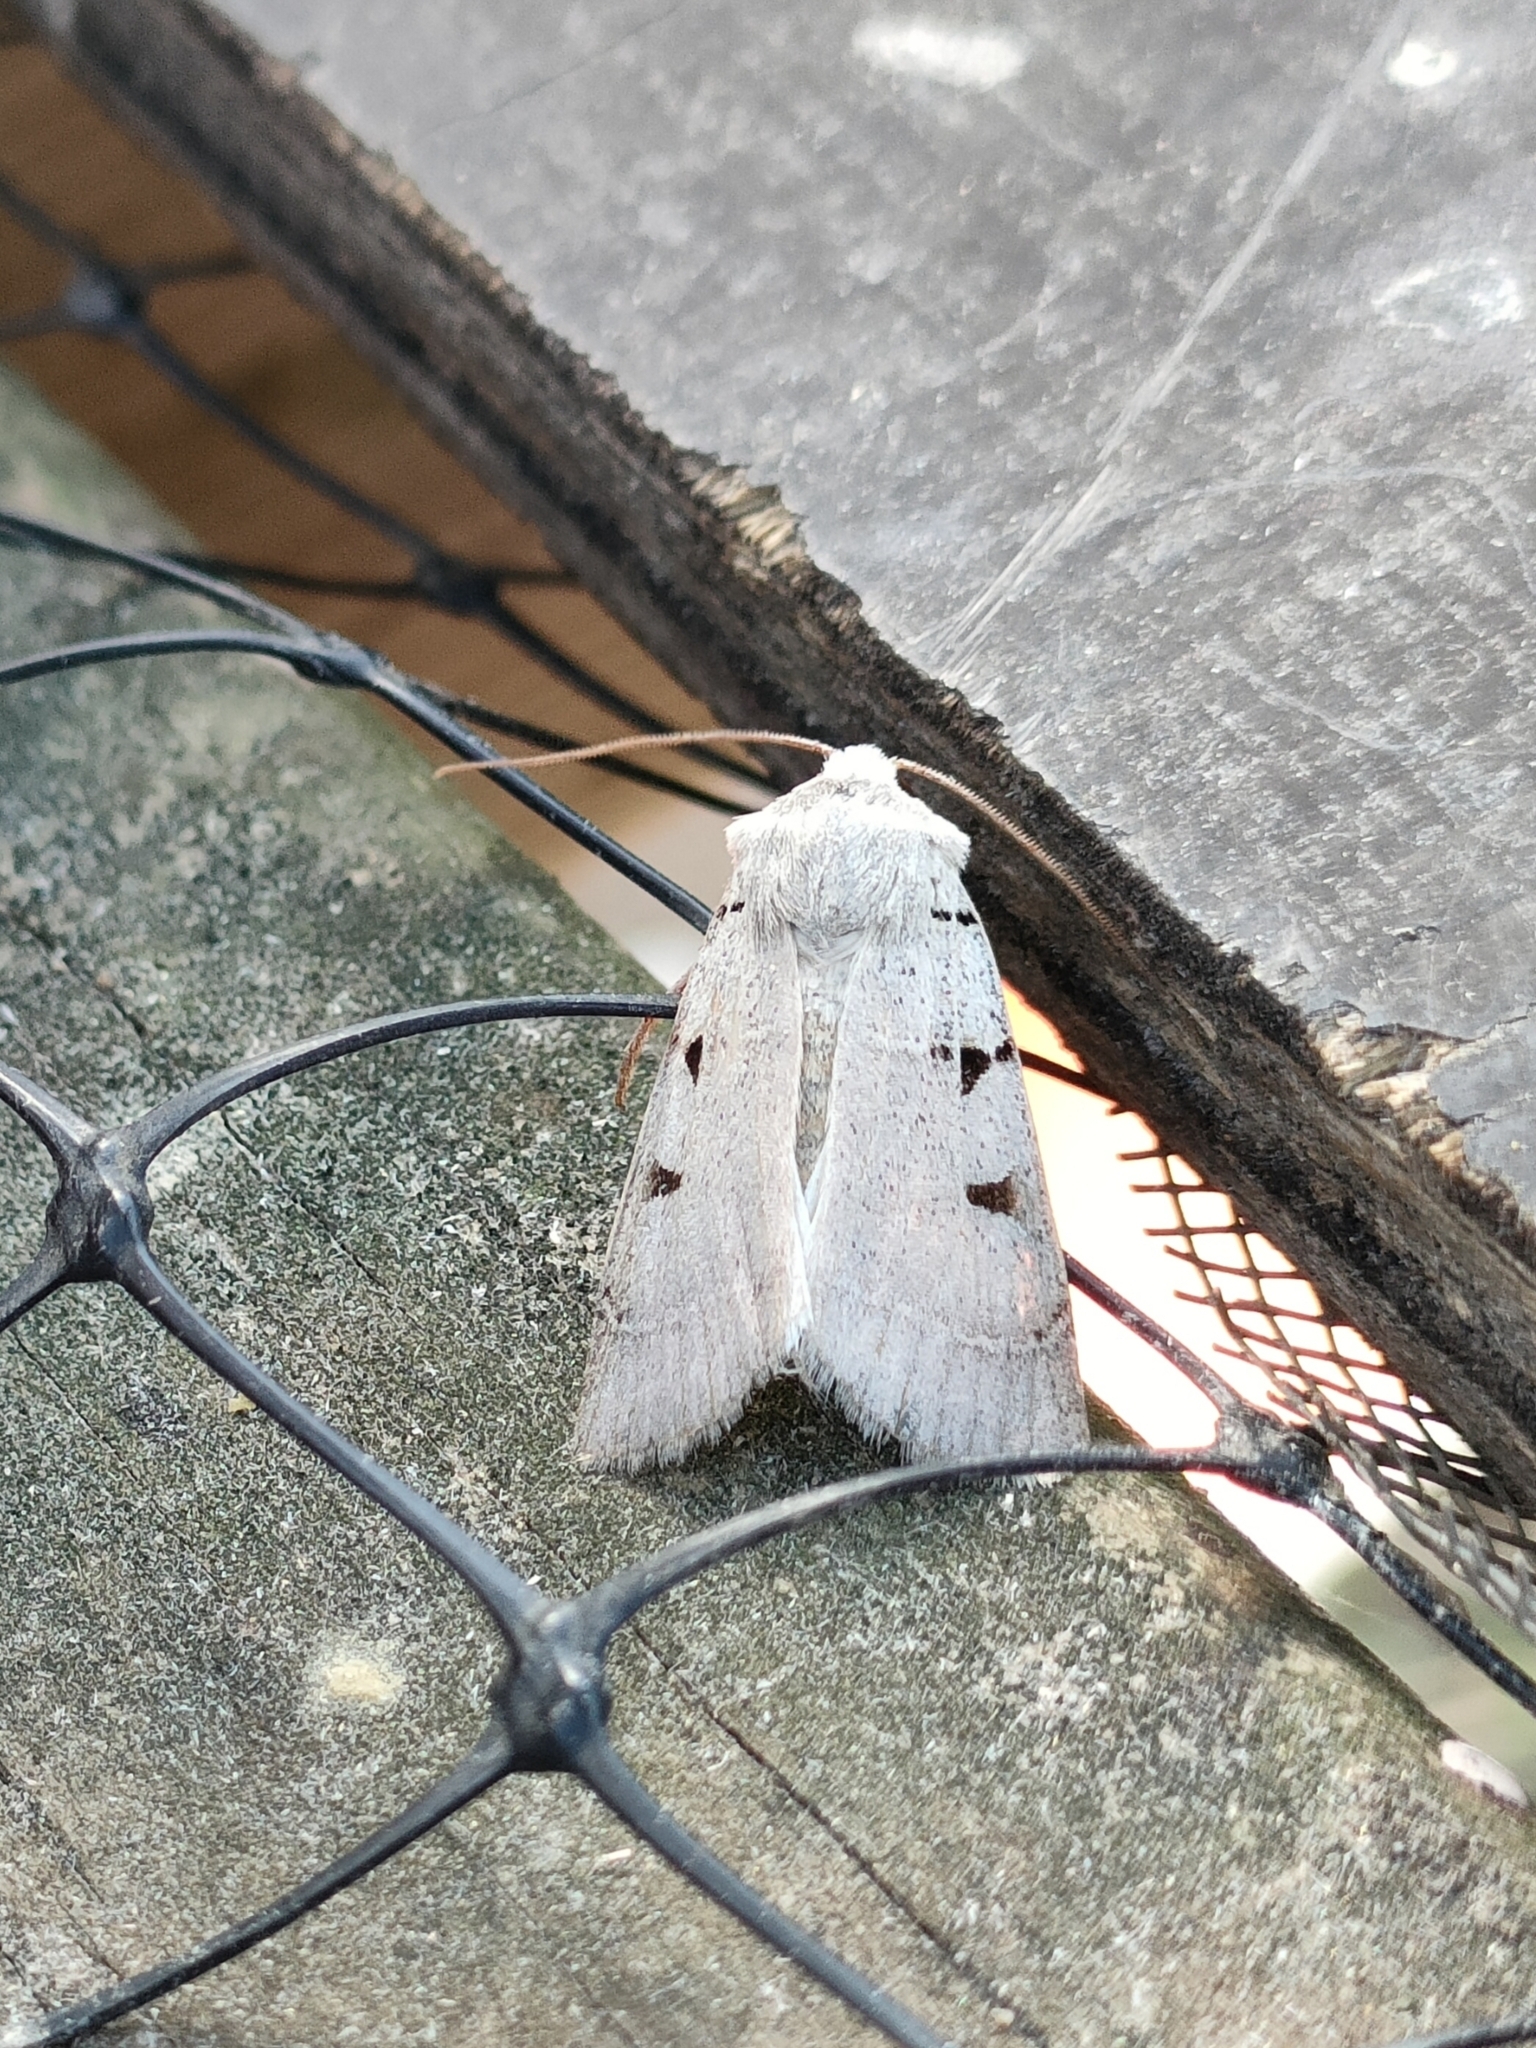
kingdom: Animalia
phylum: Arthropoda
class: Insecta
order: Lepidoptera
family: Noctuidae
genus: Eugnorisma
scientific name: Eugnorisma glareosa
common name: Autumnal rustic
